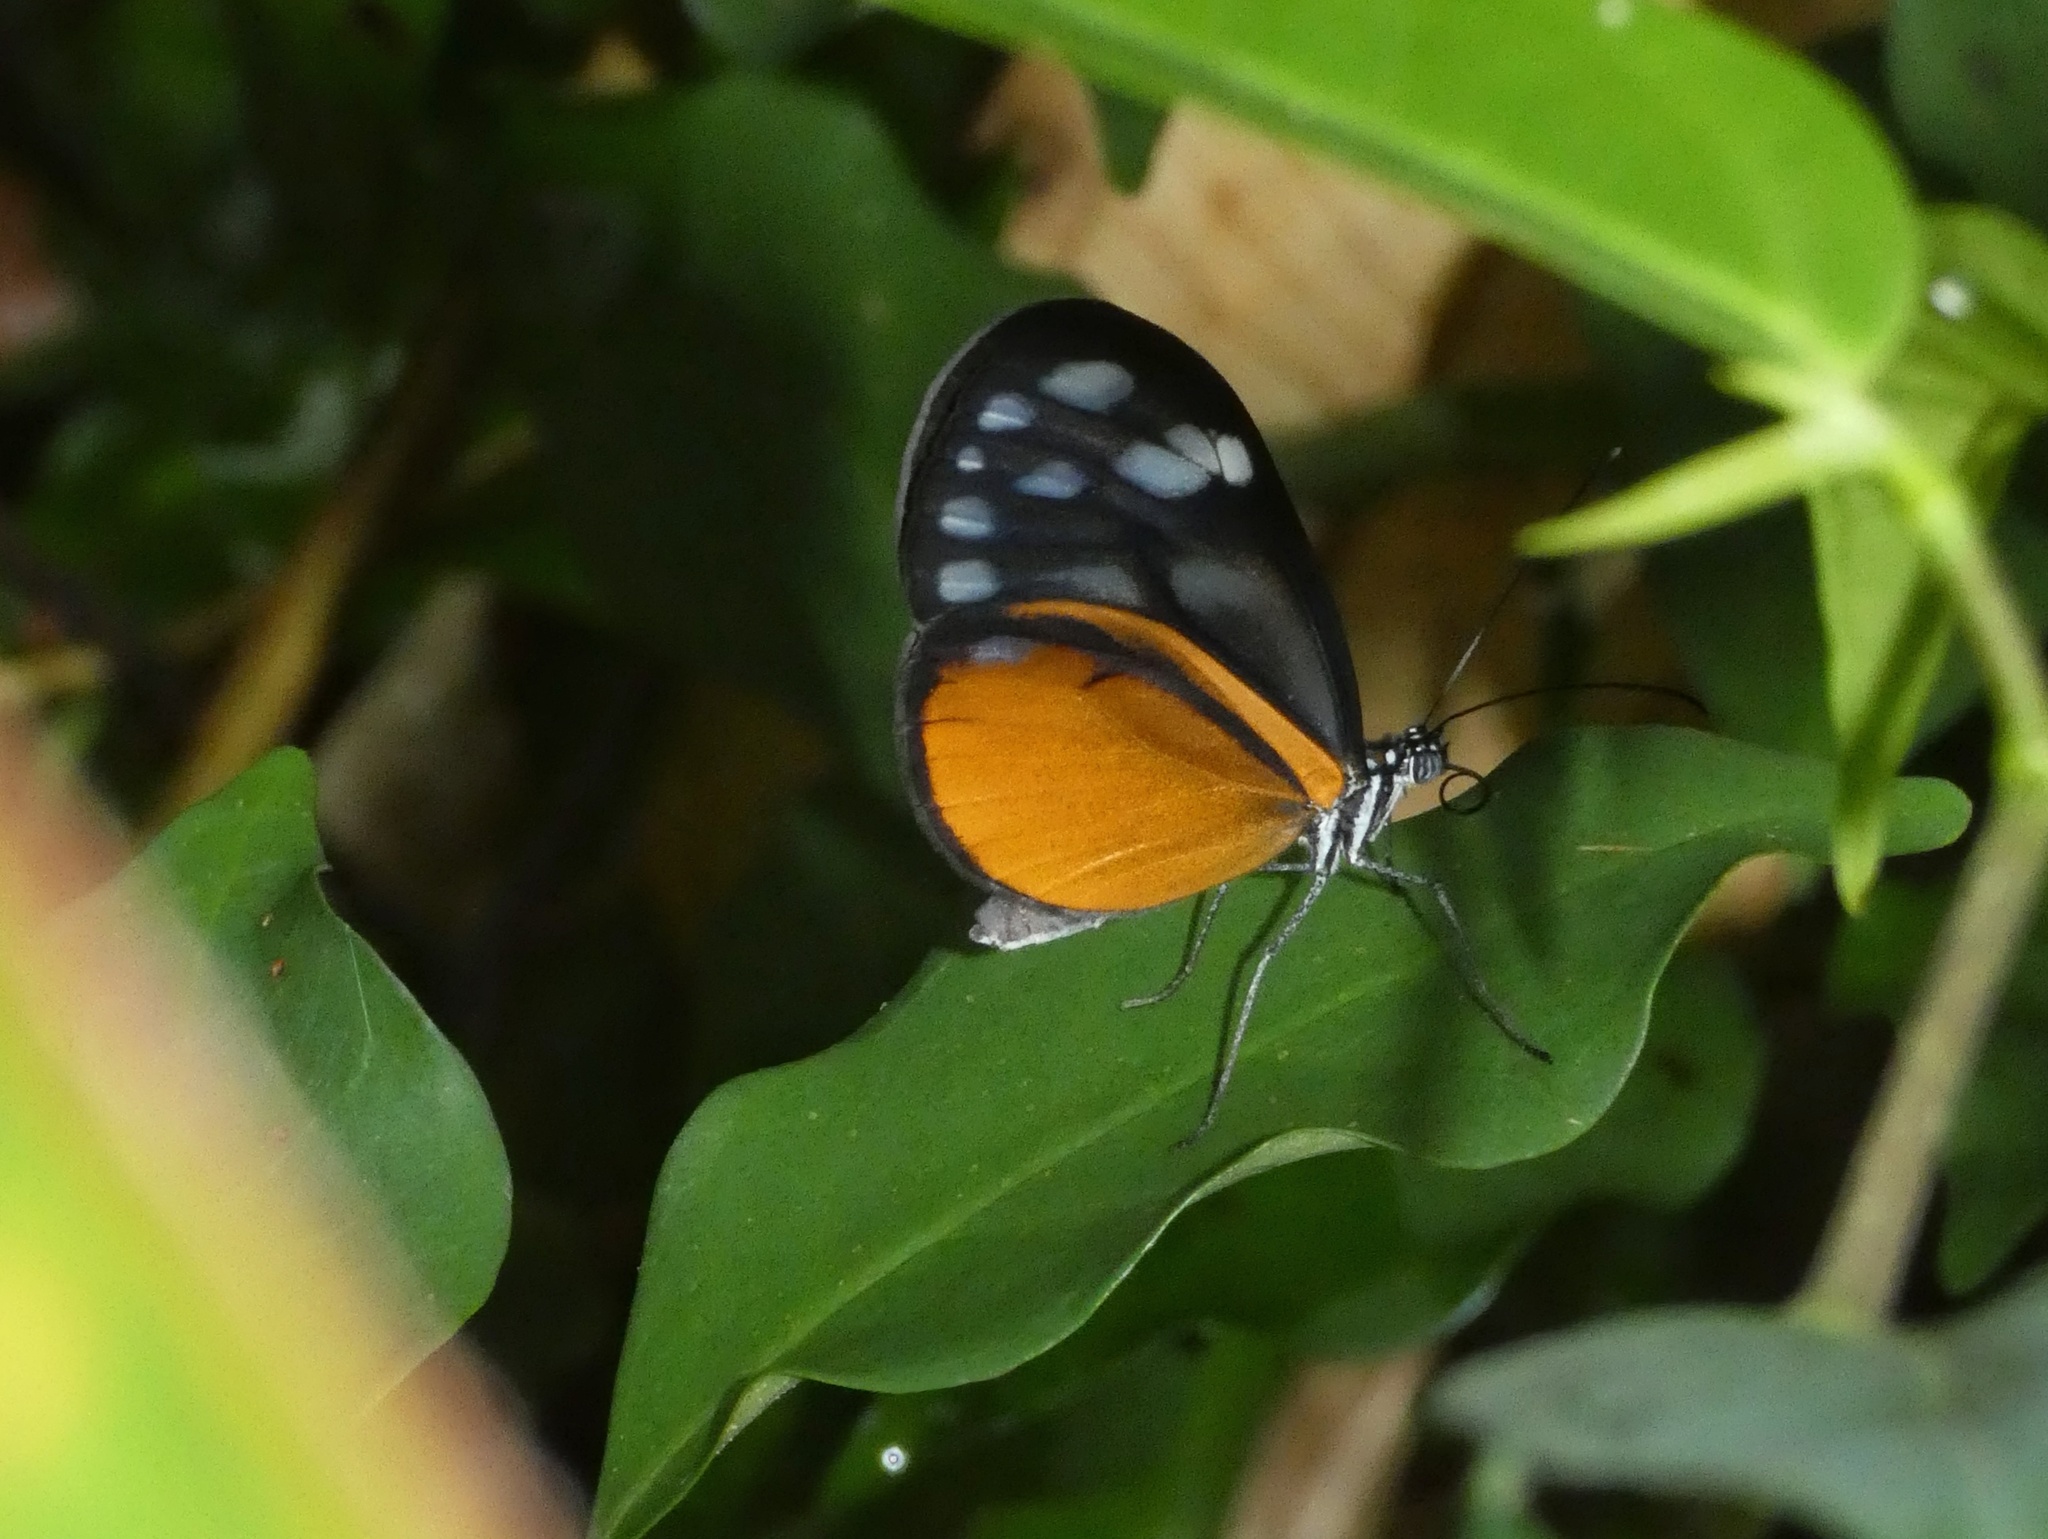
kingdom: Animalia
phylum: Arthropoda
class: Insecta
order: Lepidoptera
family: Nymphalidae
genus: Hypoleria
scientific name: Hypoleria lavinia
